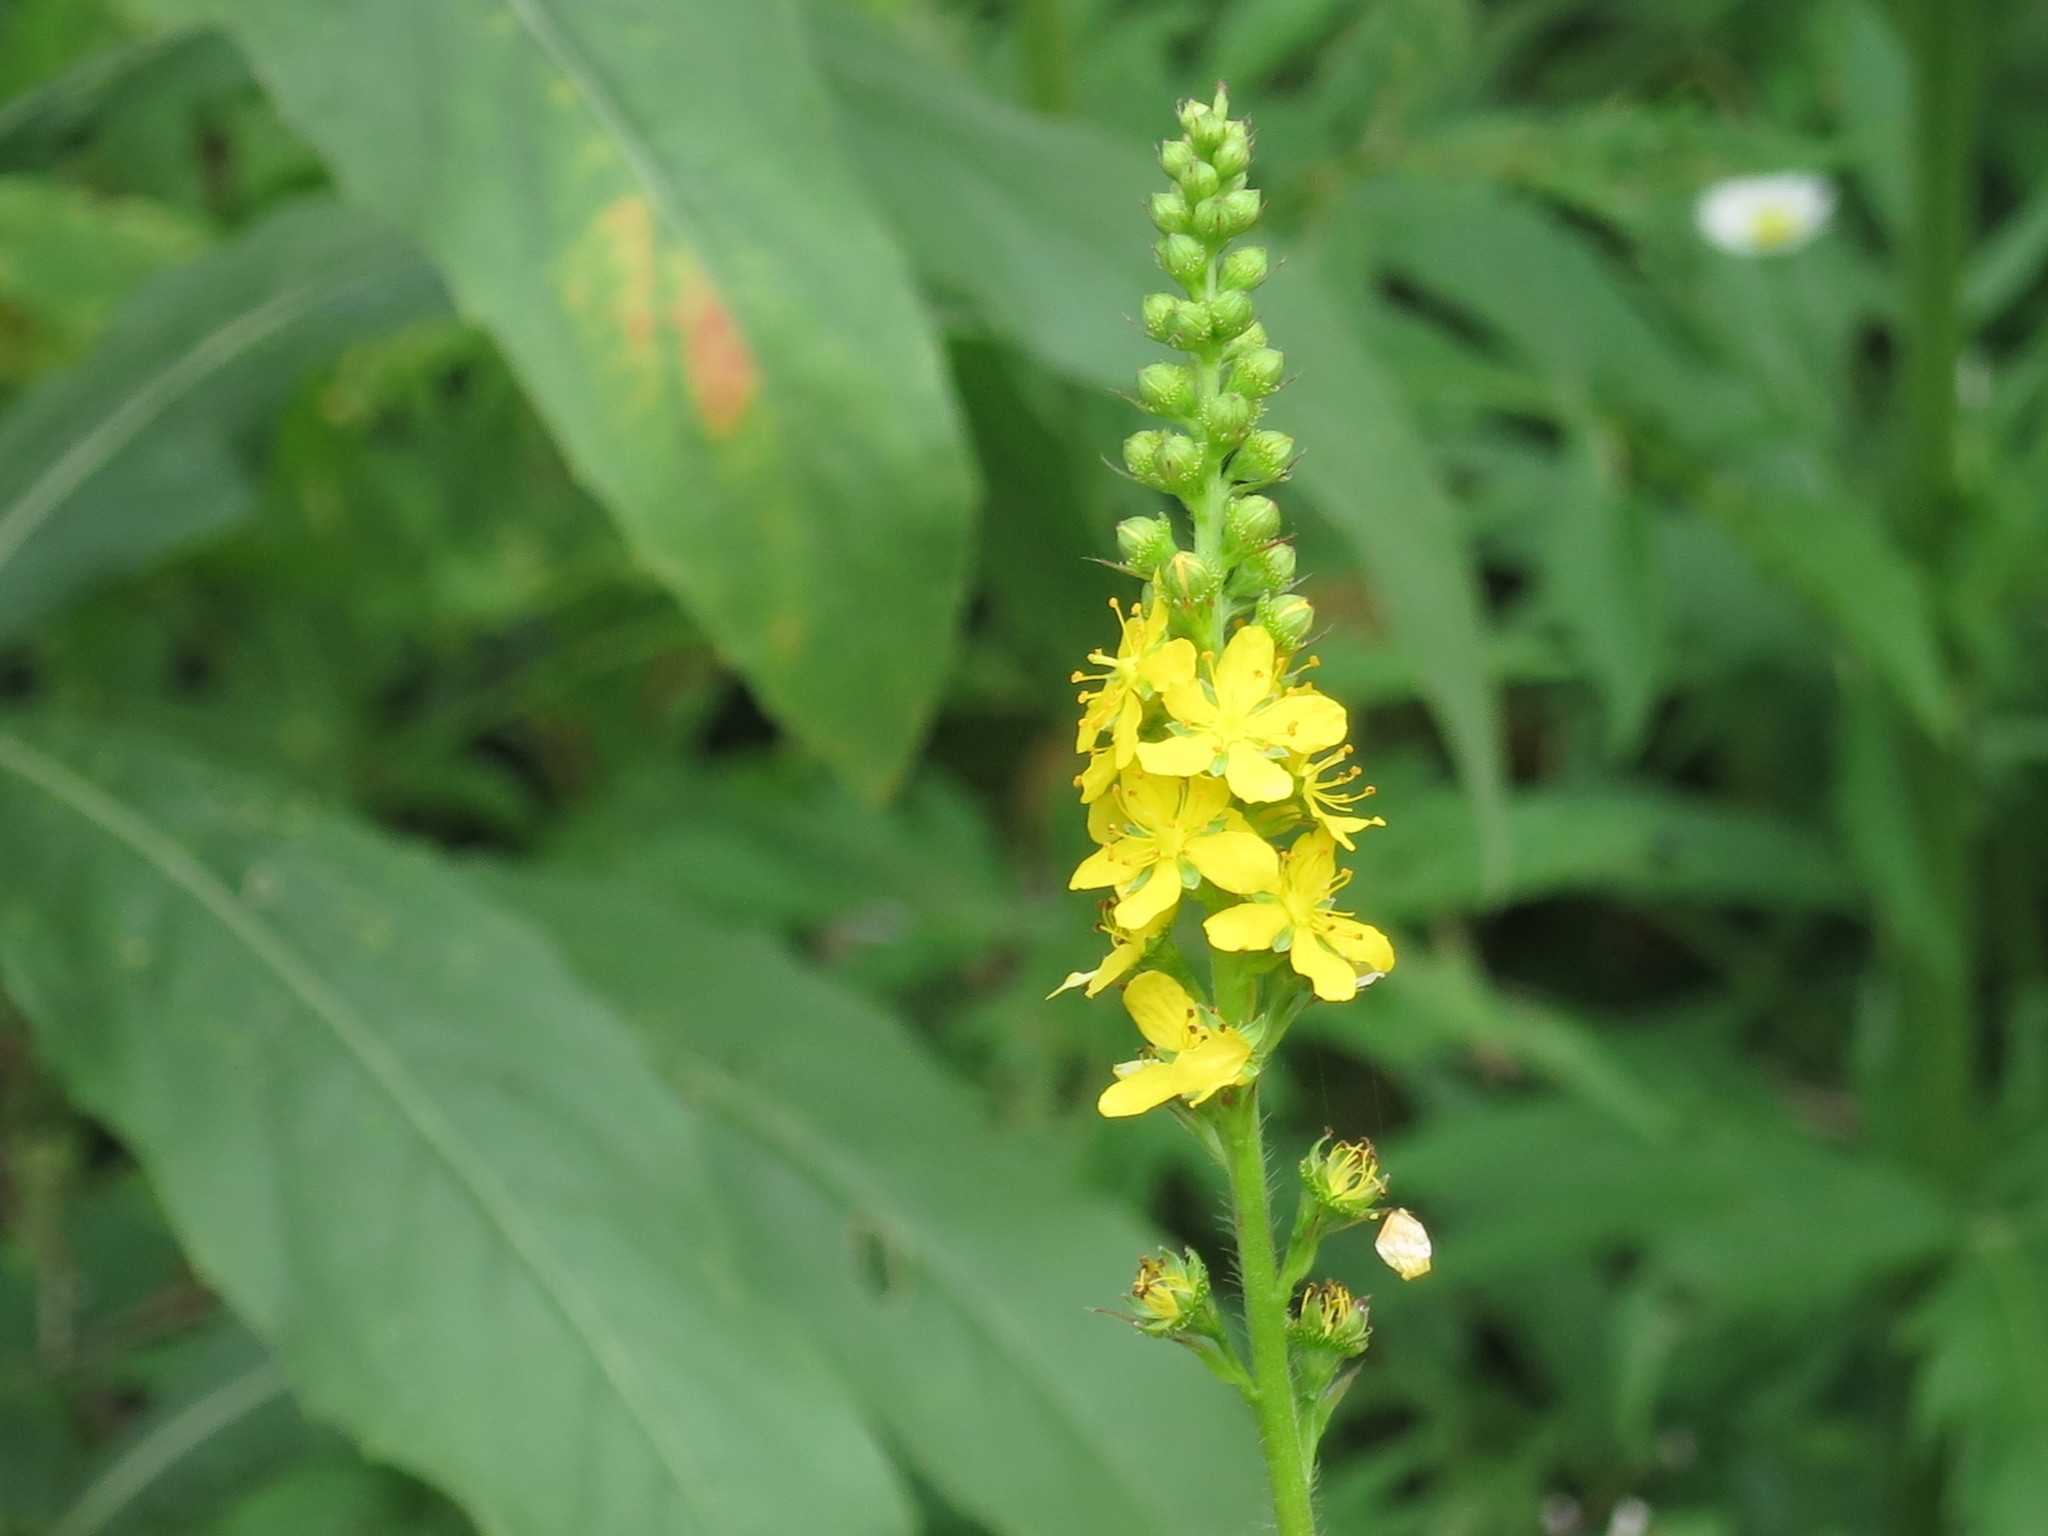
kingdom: Plantae
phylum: Tracheophyta
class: Magnoliopsida
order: Rosales
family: Rosaceae
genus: Agrimonia
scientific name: Agrimonia pilosa
